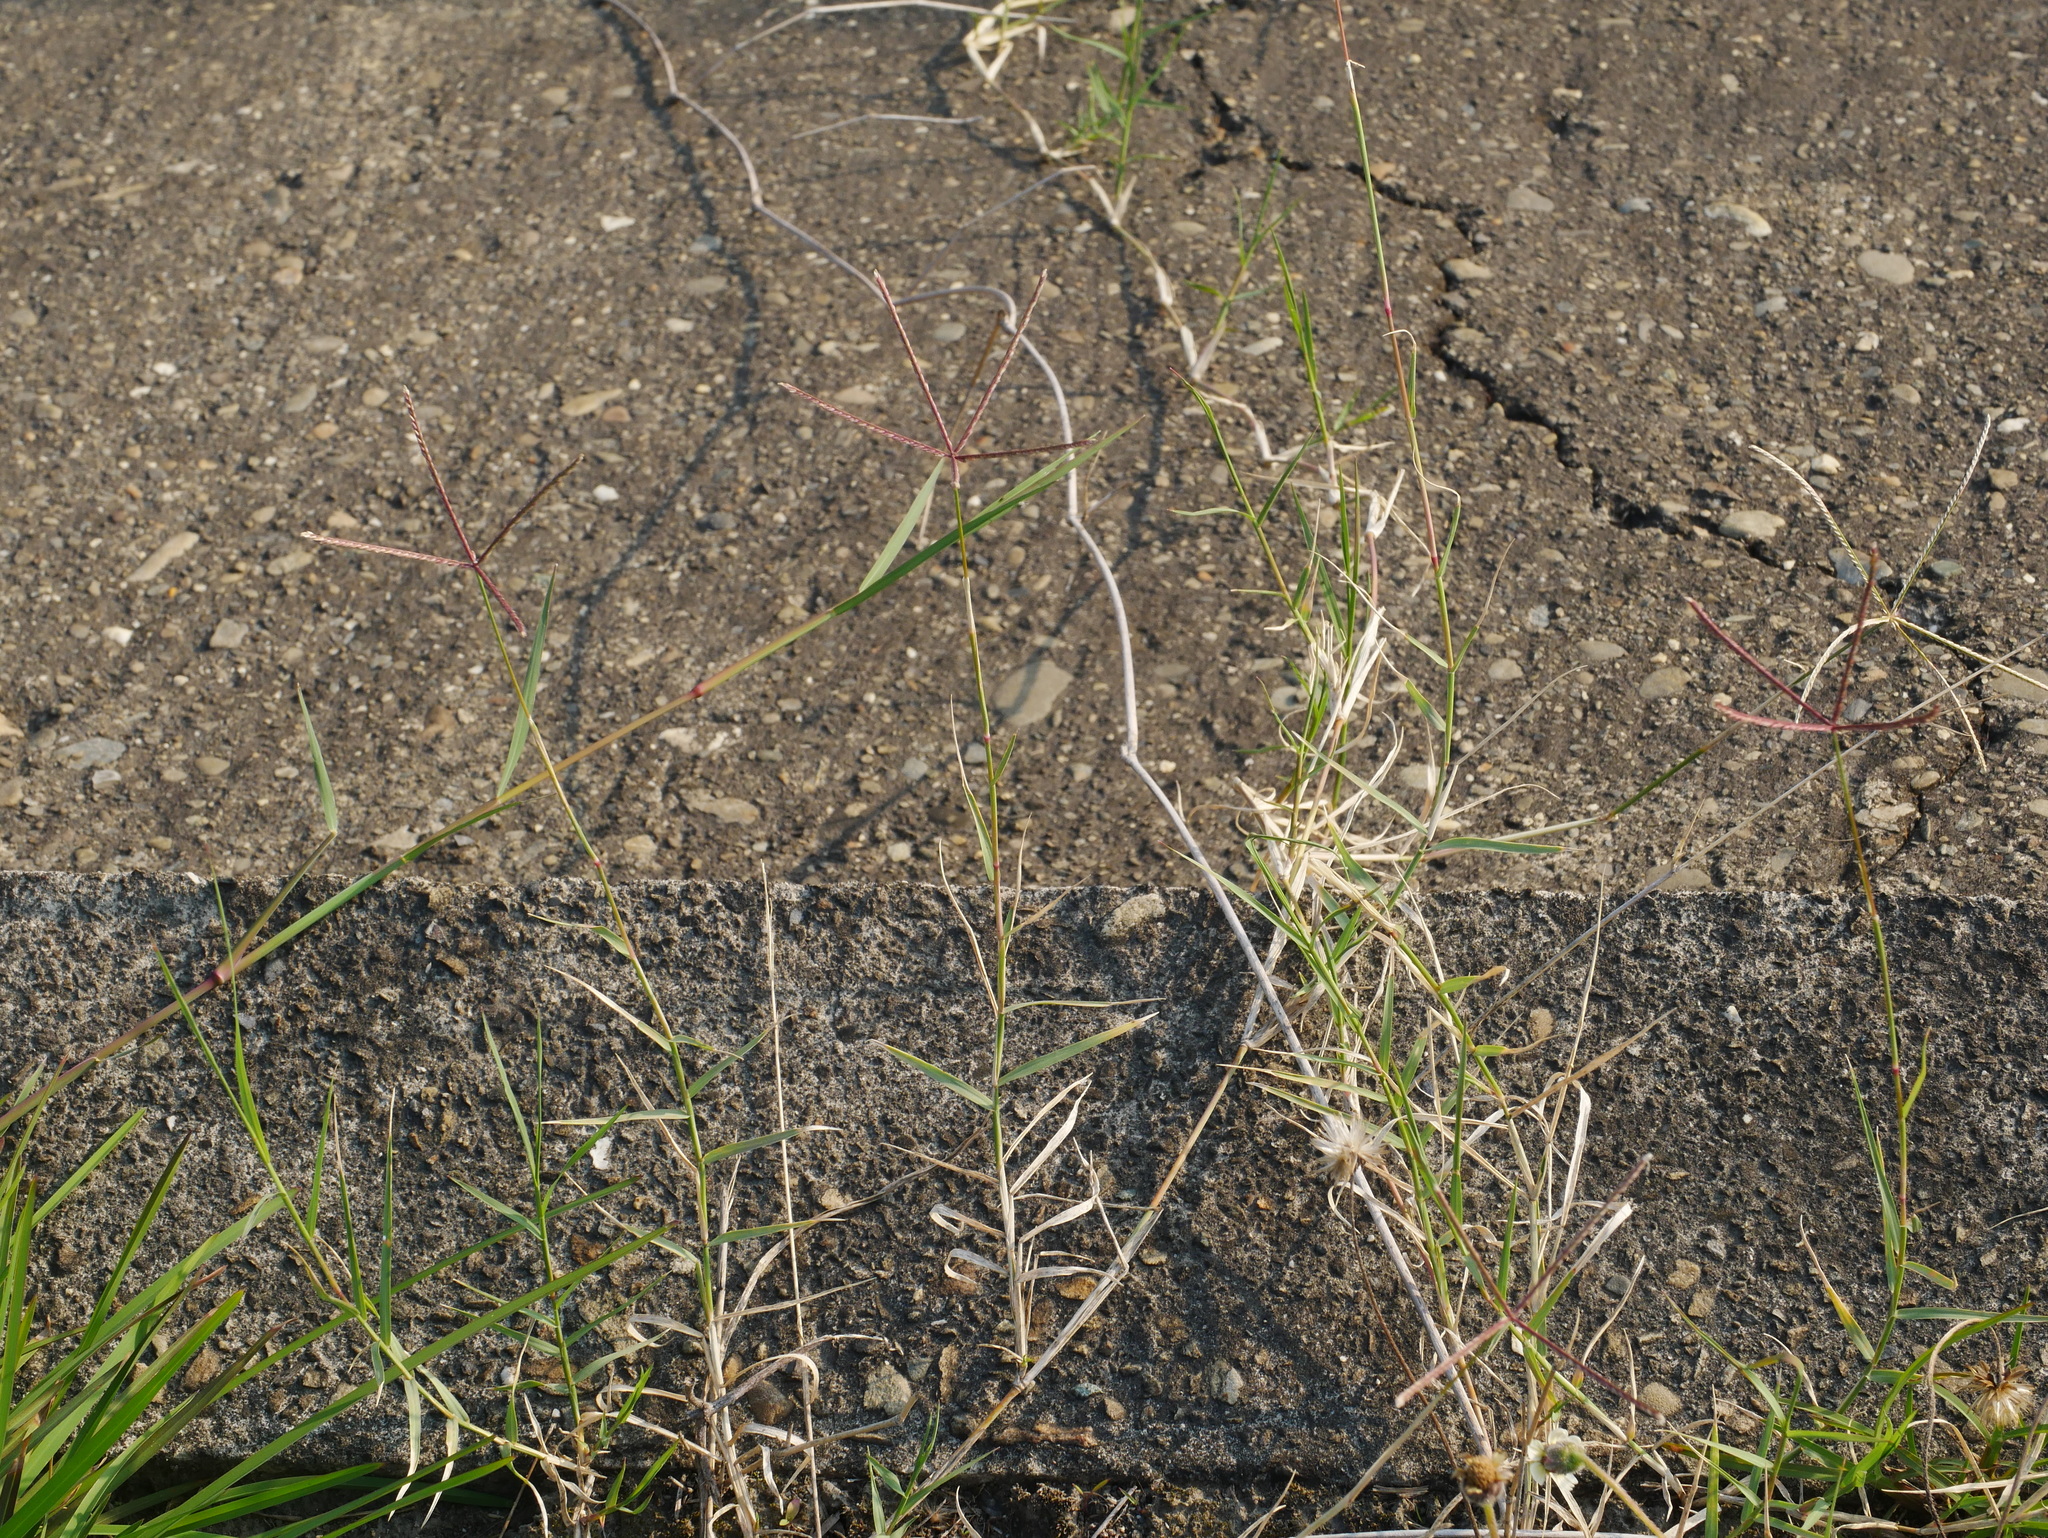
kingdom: Plantae
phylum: Tracheophyta
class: Liliopsida
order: Poales
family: Poaceae
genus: Cynodon
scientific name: Cynodon dactylon
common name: Bermuda grass
